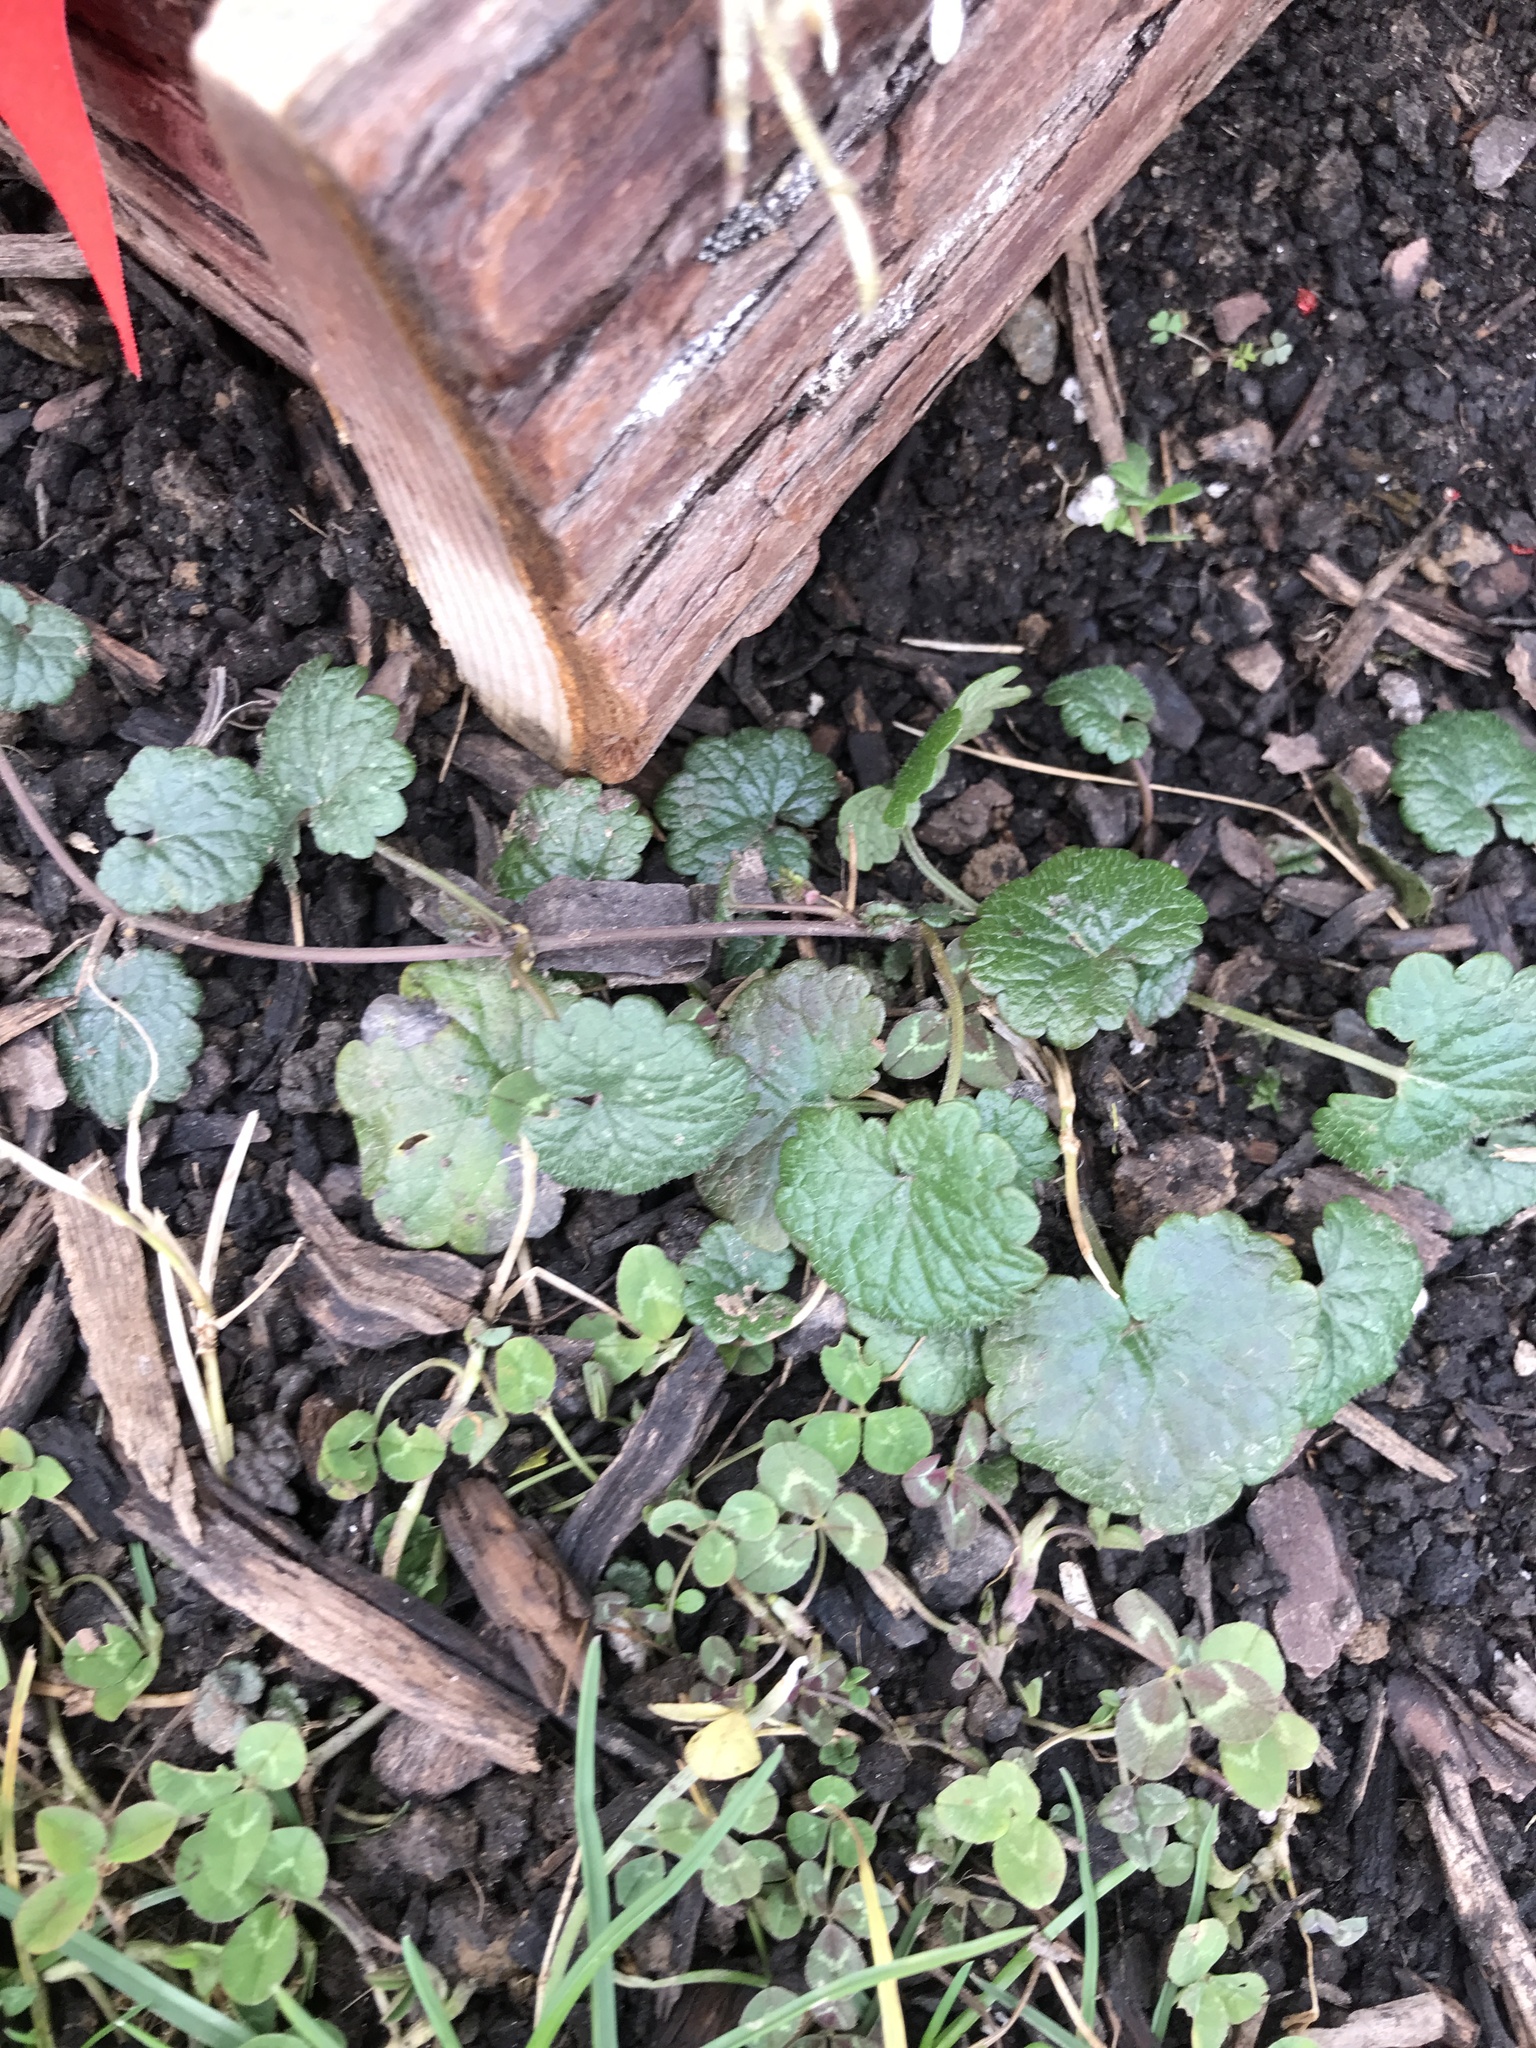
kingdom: Plantae
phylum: Tracheophyta
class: Magnoliopsida
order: Lamiales
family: Lamiaceae
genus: Glechoma
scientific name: Glechoma hederacea
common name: Ground ivy
